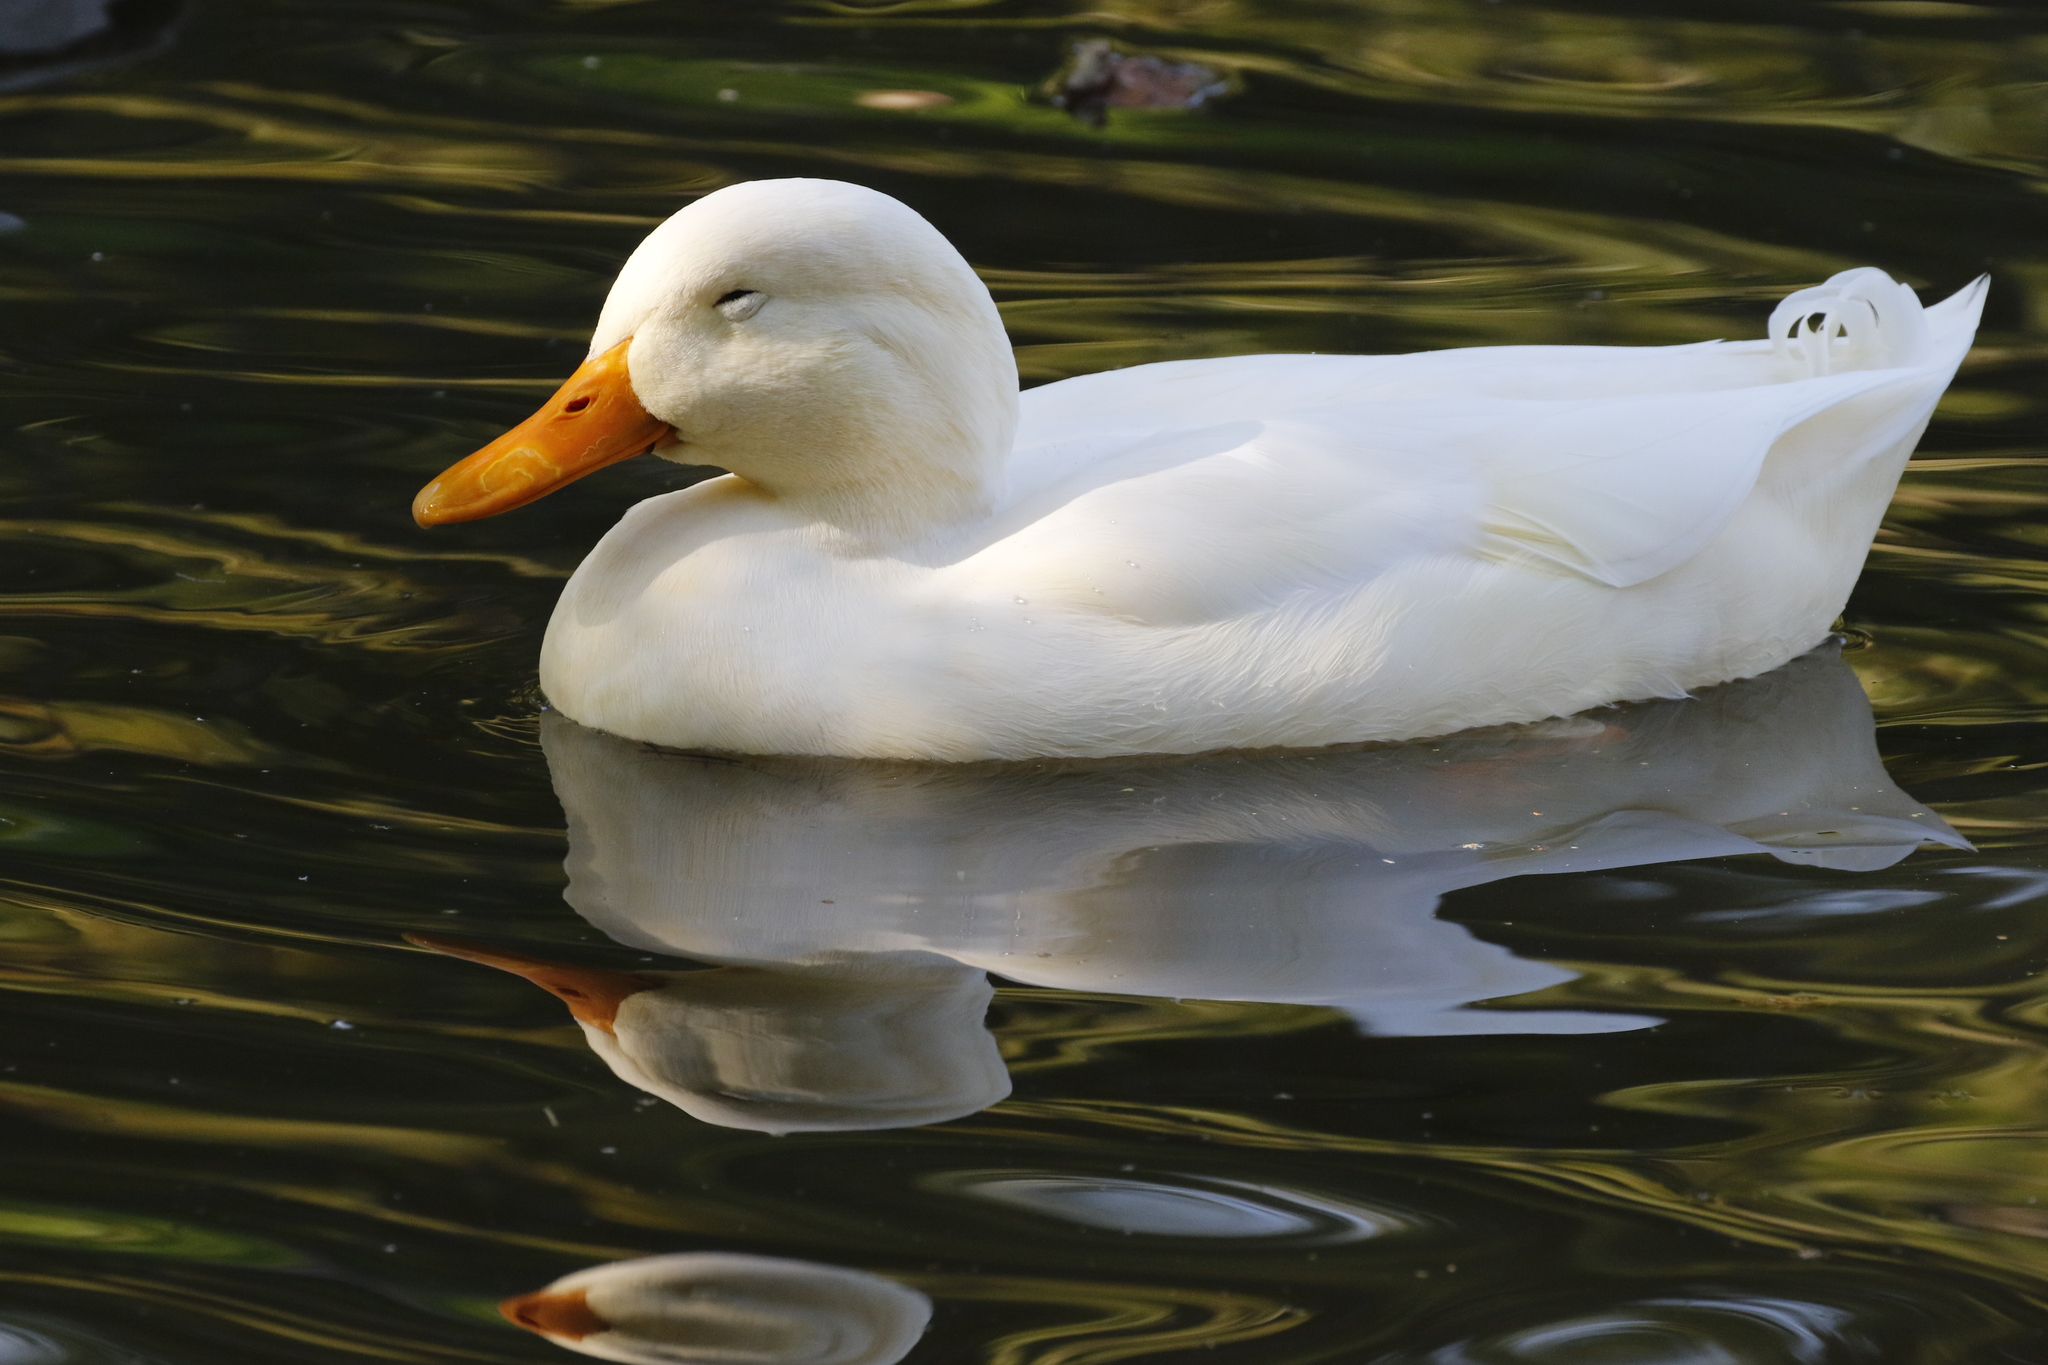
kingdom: Animalia
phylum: Chordata
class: Aves
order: Anseriformes
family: Anatidae
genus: Anas
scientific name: Anas platyrhynchos
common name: Mallard
